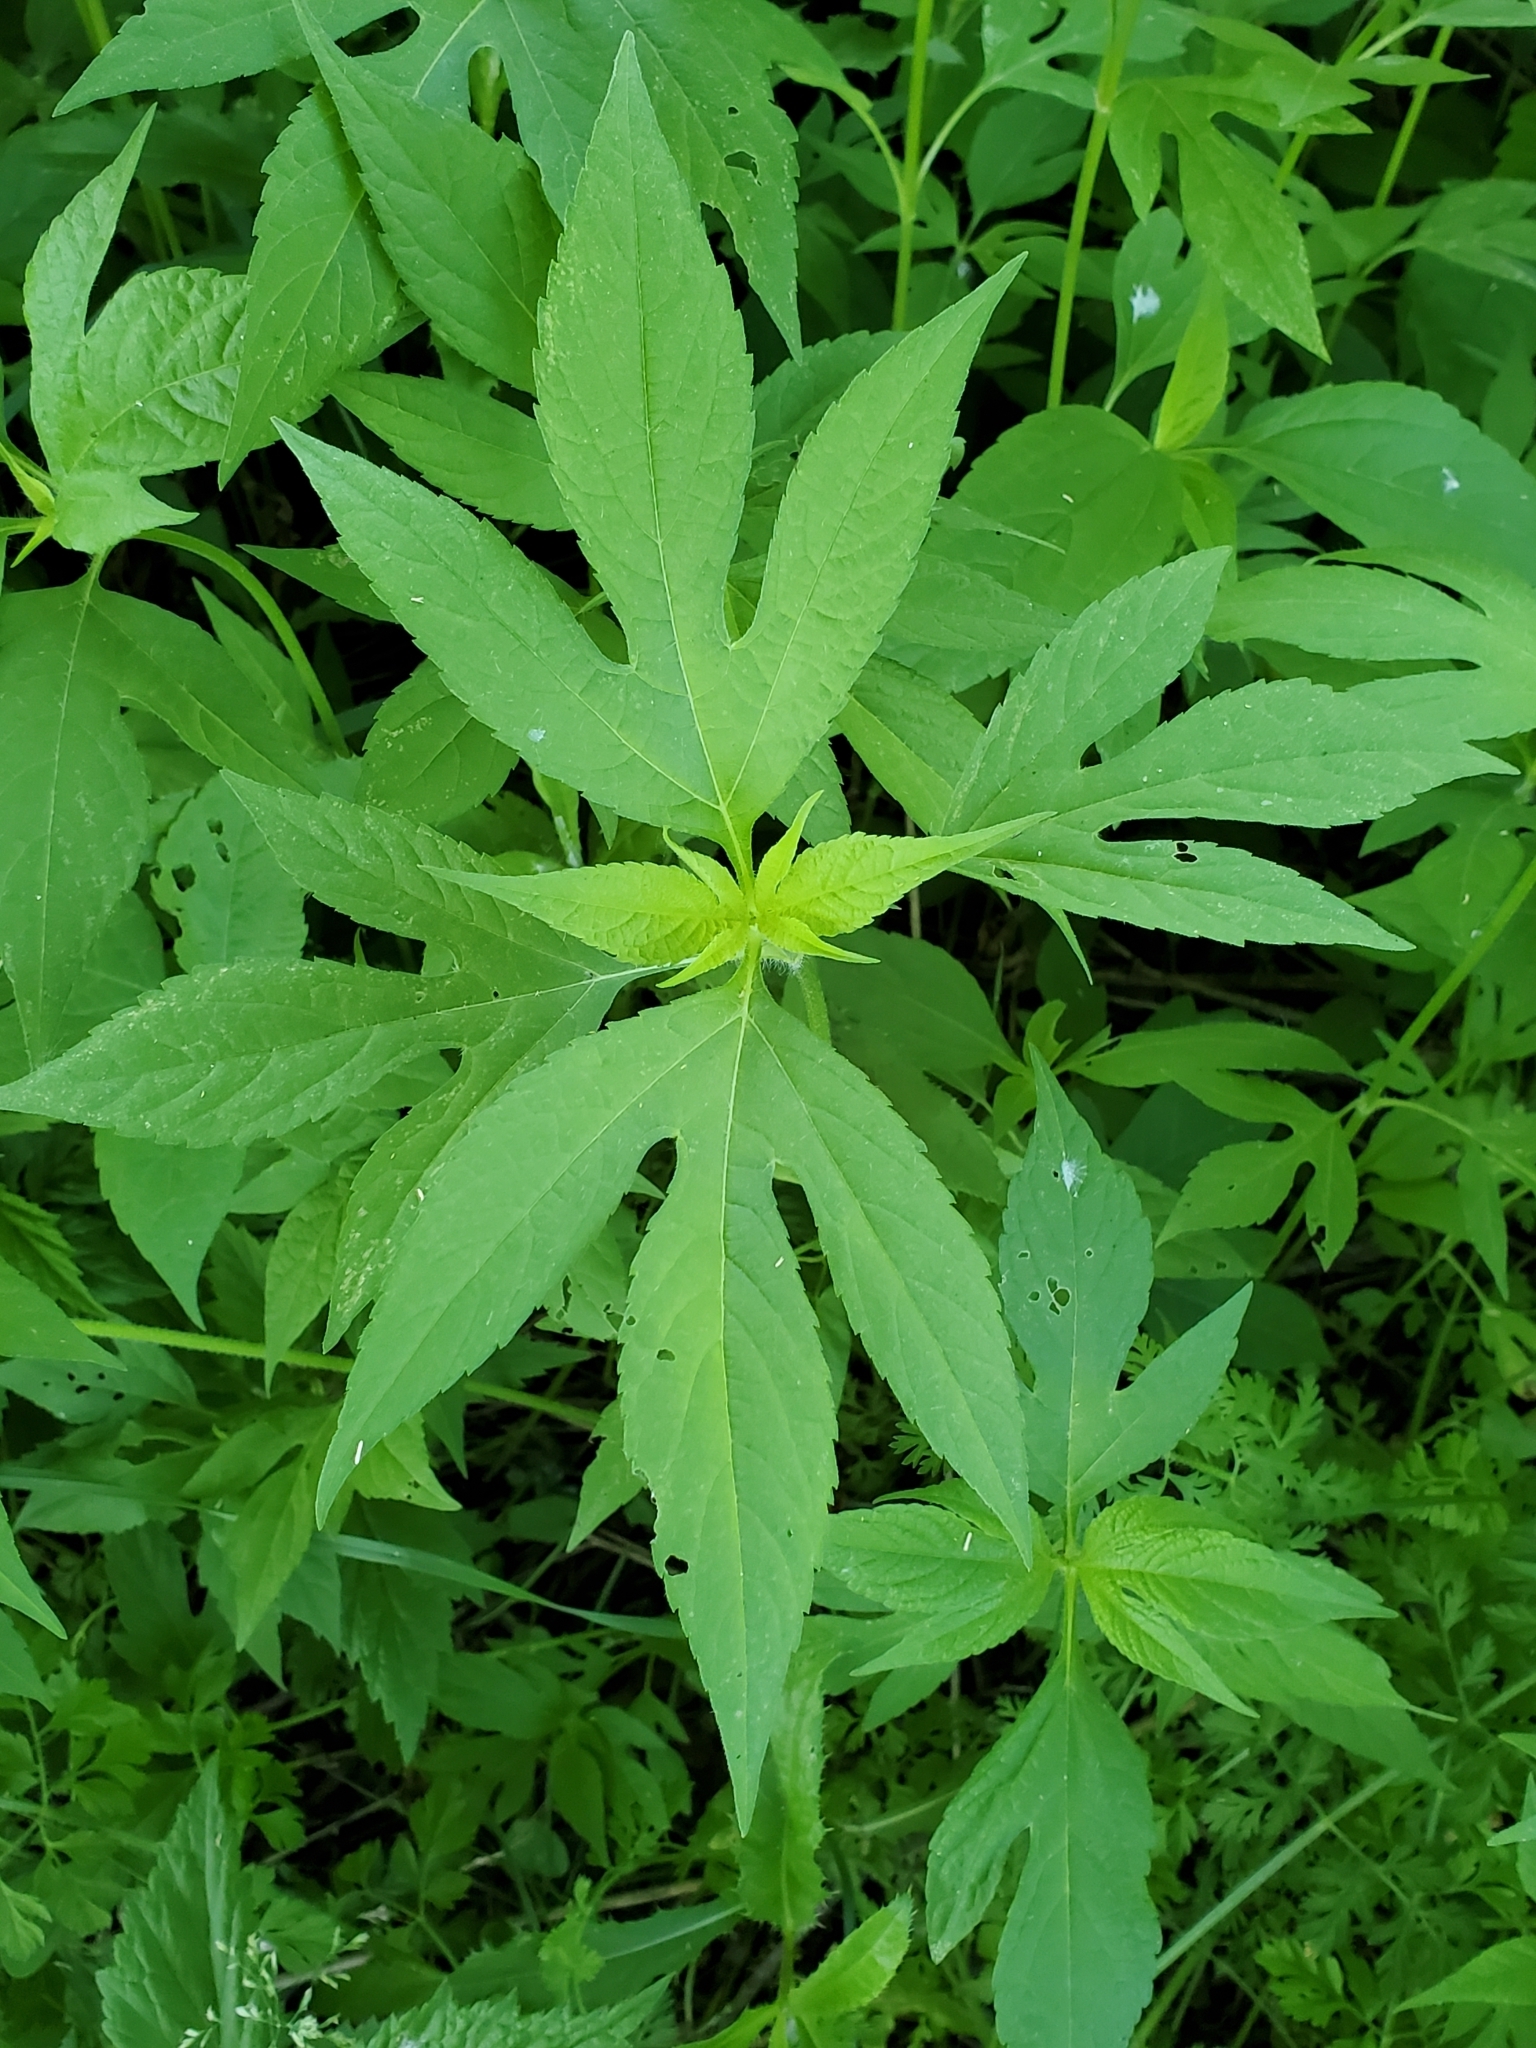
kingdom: Plantae
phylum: Tracheophyta
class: Magnoliopsida
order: Asterales
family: Asteraceae
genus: Ambrosia
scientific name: Ambrosia trifida
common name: Giant ragweed
